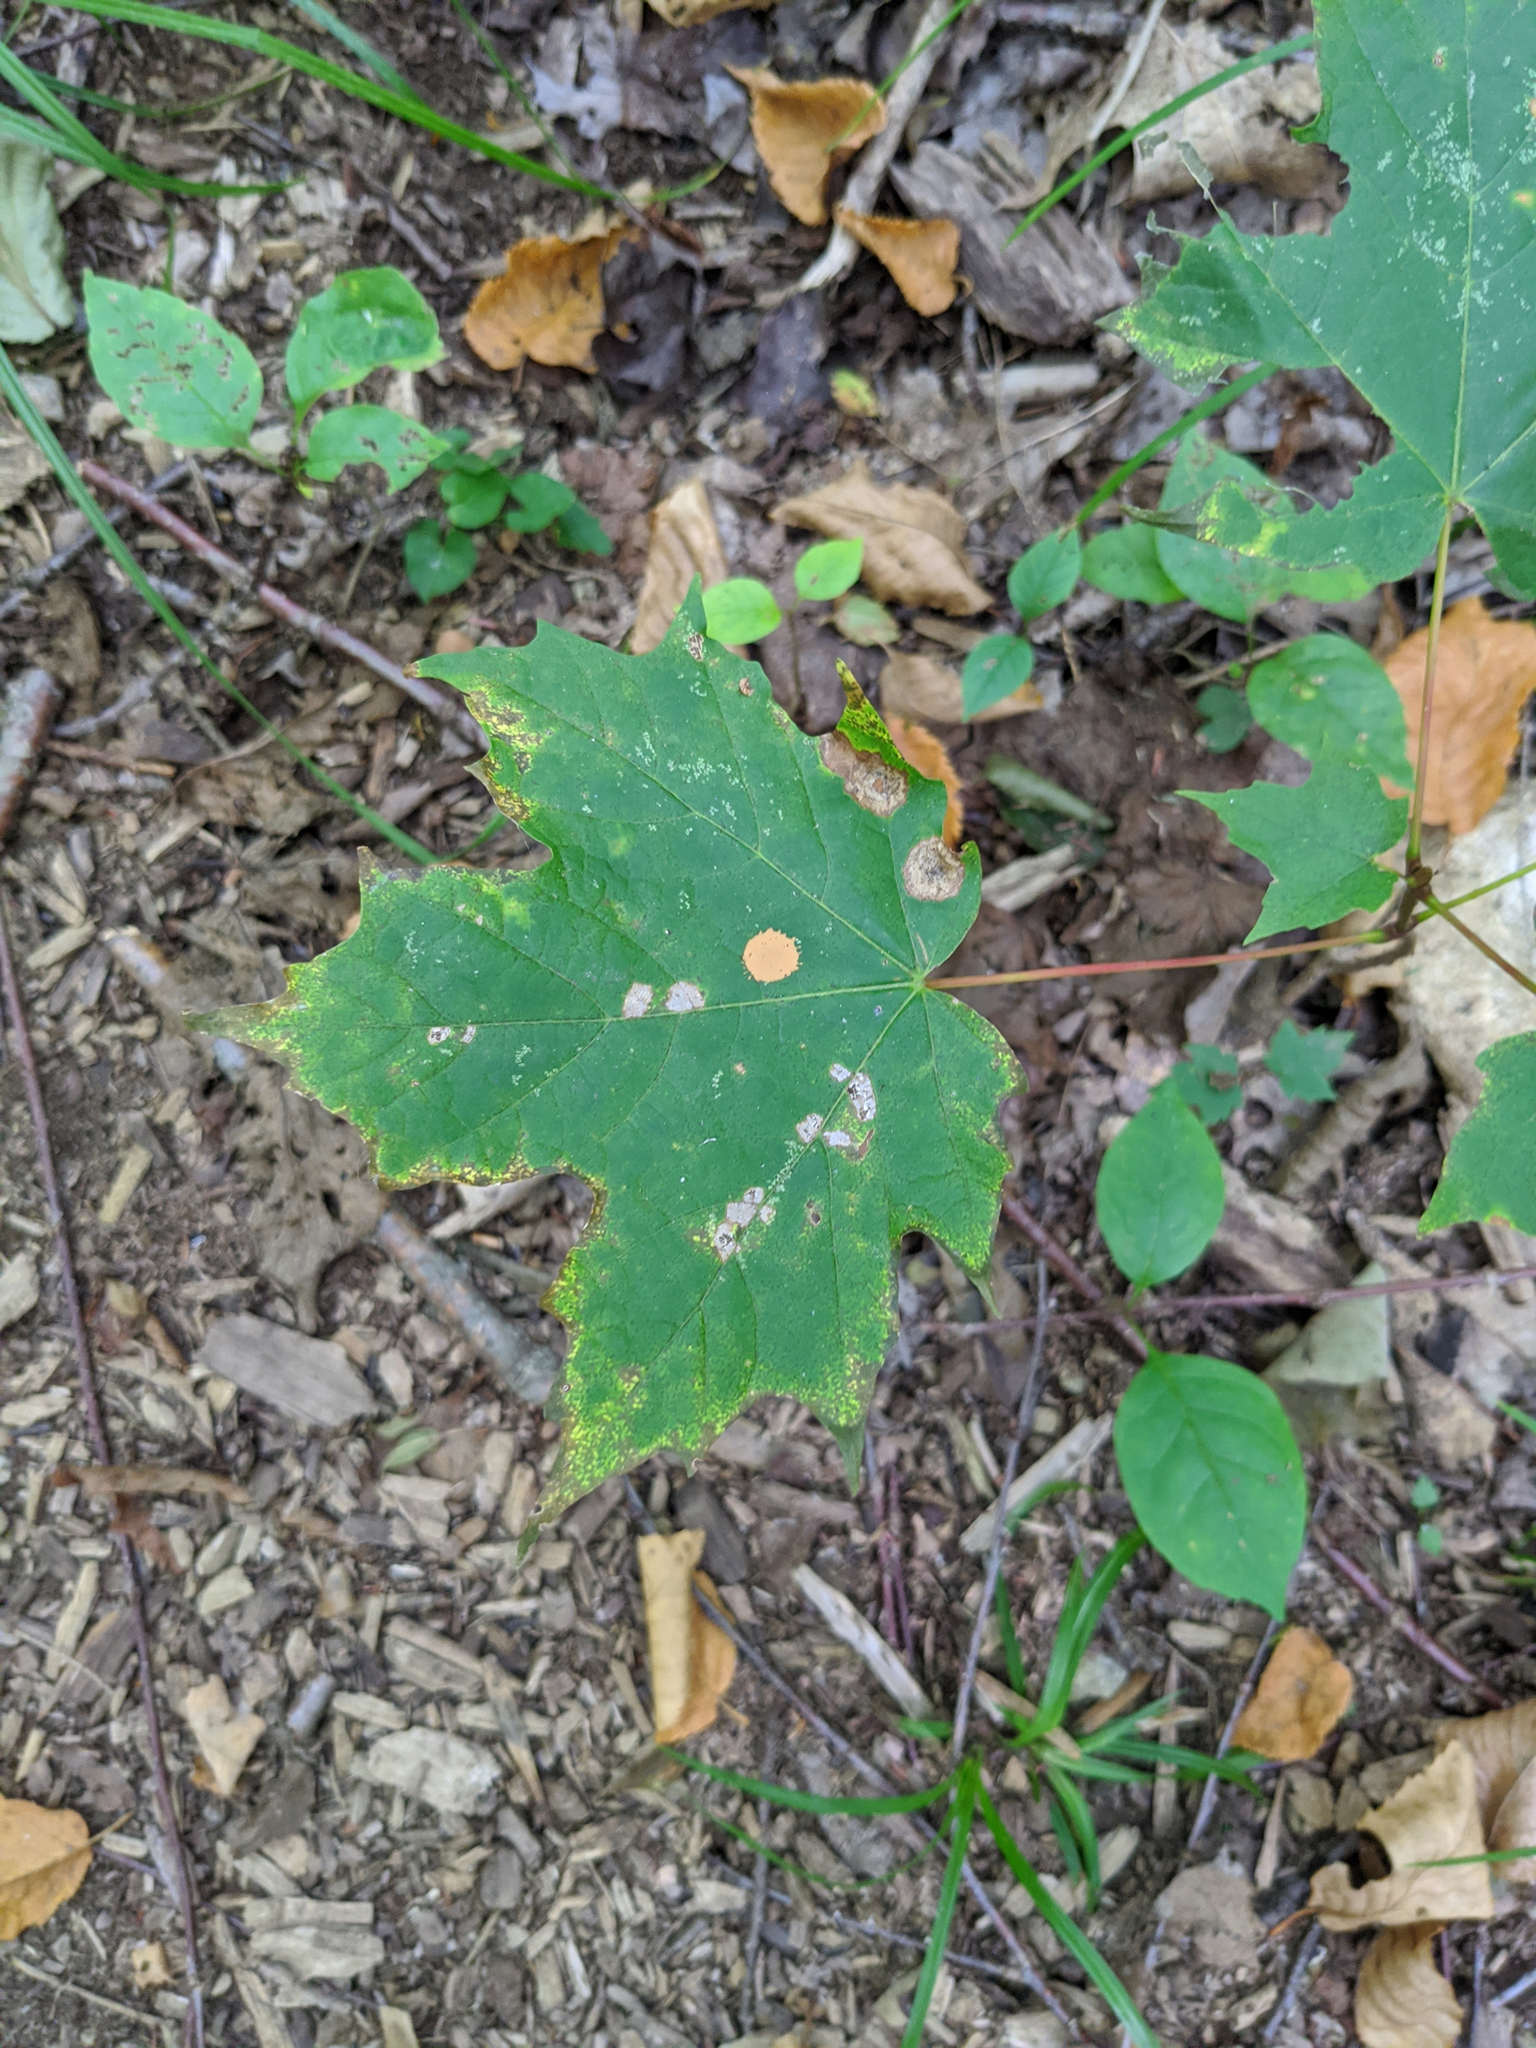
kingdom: Plantae
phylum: Tracheophyta
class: Magnoliopsida
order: Sapindales
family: Sapindaceae
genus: Acer
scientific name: Acer saccharum
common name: Sugar maple
